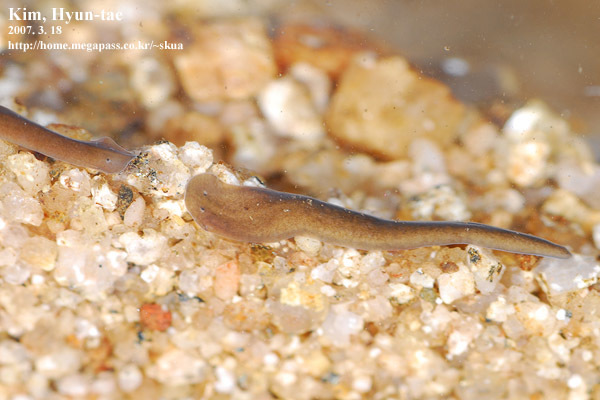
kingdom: Animalia
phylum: Platyhelminthes
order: Tricladida
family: Dugesiidae
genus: Dugesia
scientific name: Dugesia japonica
